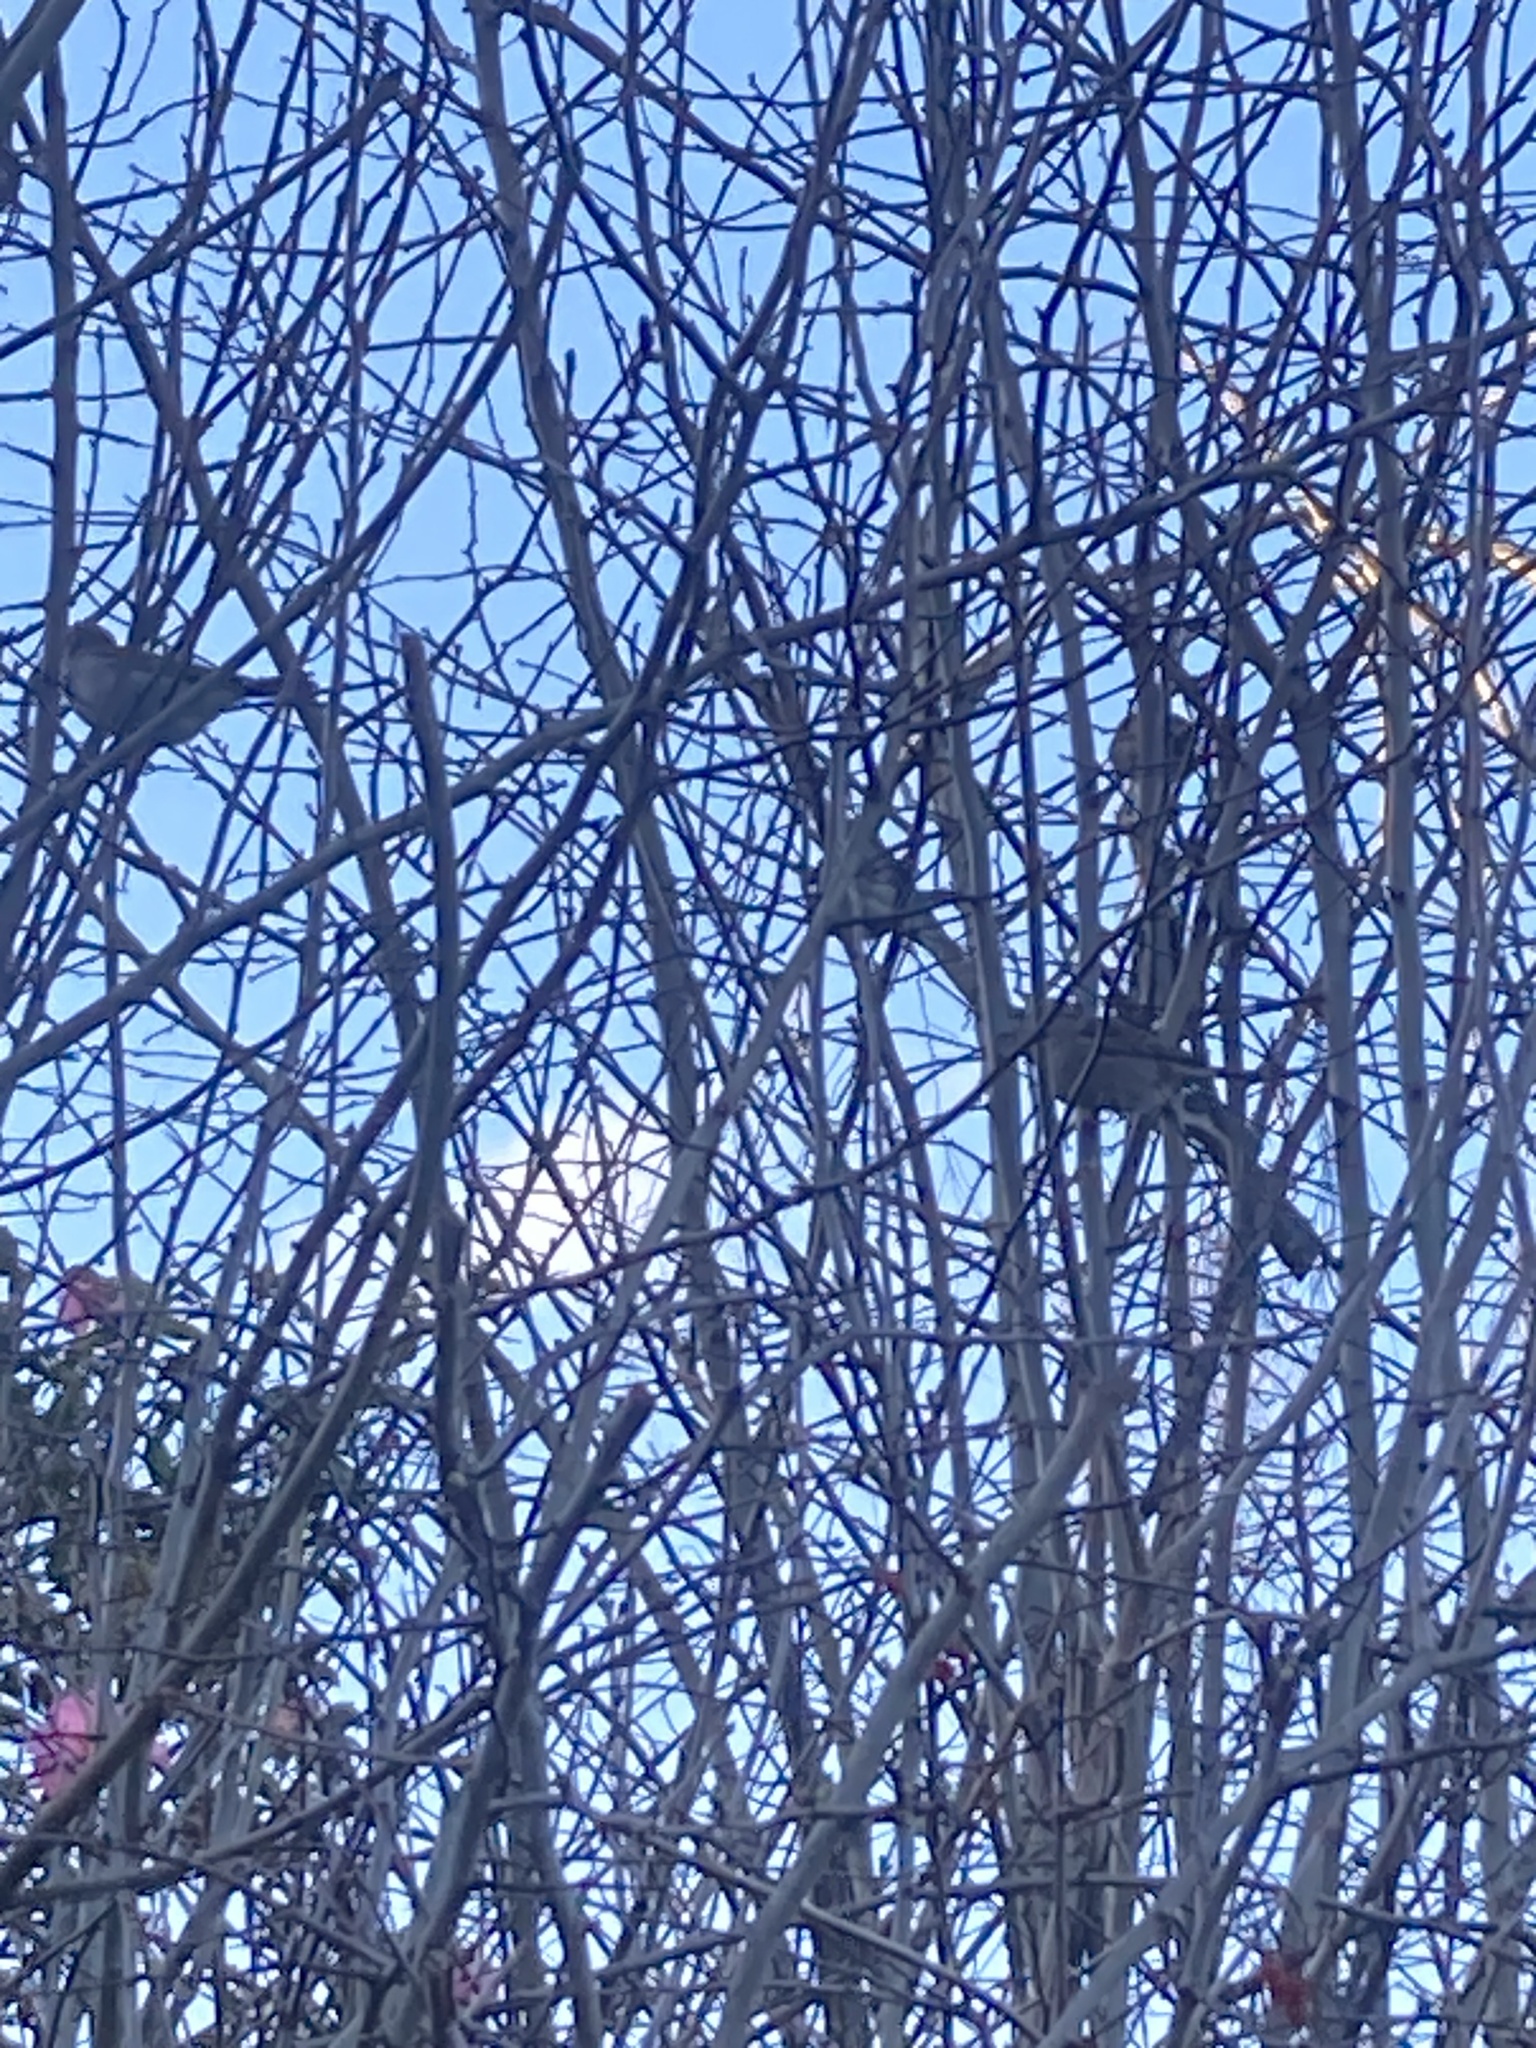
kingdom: Animalia
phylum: Chordata
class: Aves
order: Passeriformes
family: Passeridae
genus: Passer
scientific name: Passer domesticus
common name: House sparrow
